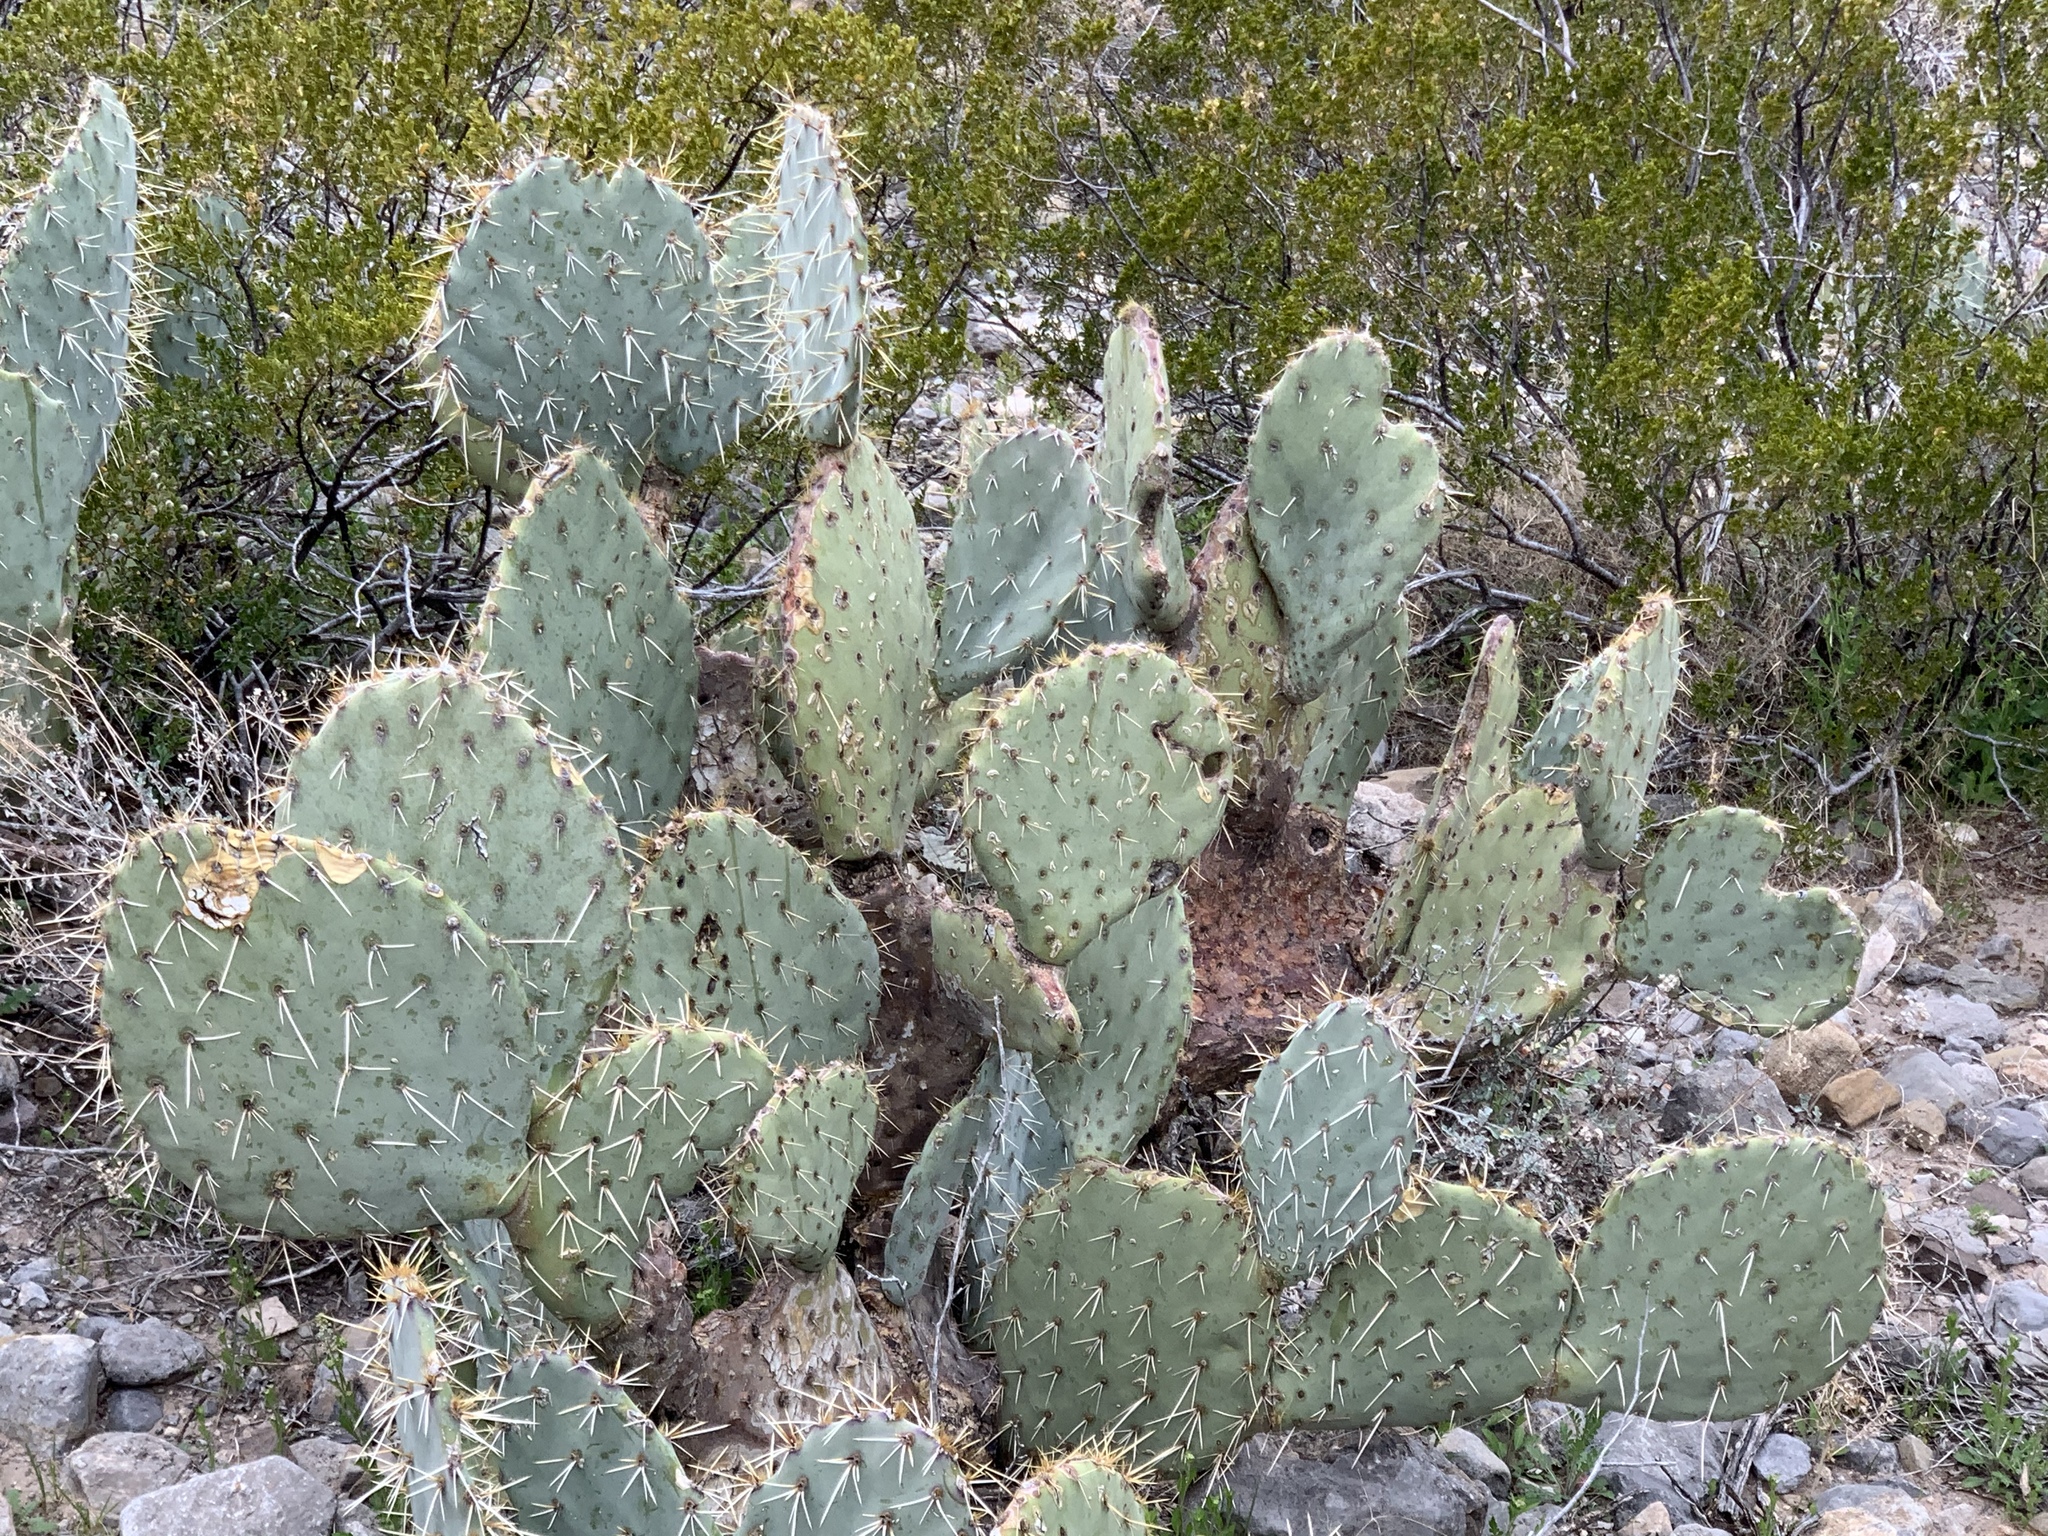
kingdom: Plantae
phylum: Tracheophyta
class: Magnoliopsida
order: Caryophyllales
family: Cactaceae
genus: Opuntia
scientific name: Opuntia engelmannii
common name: Cactus-apple
